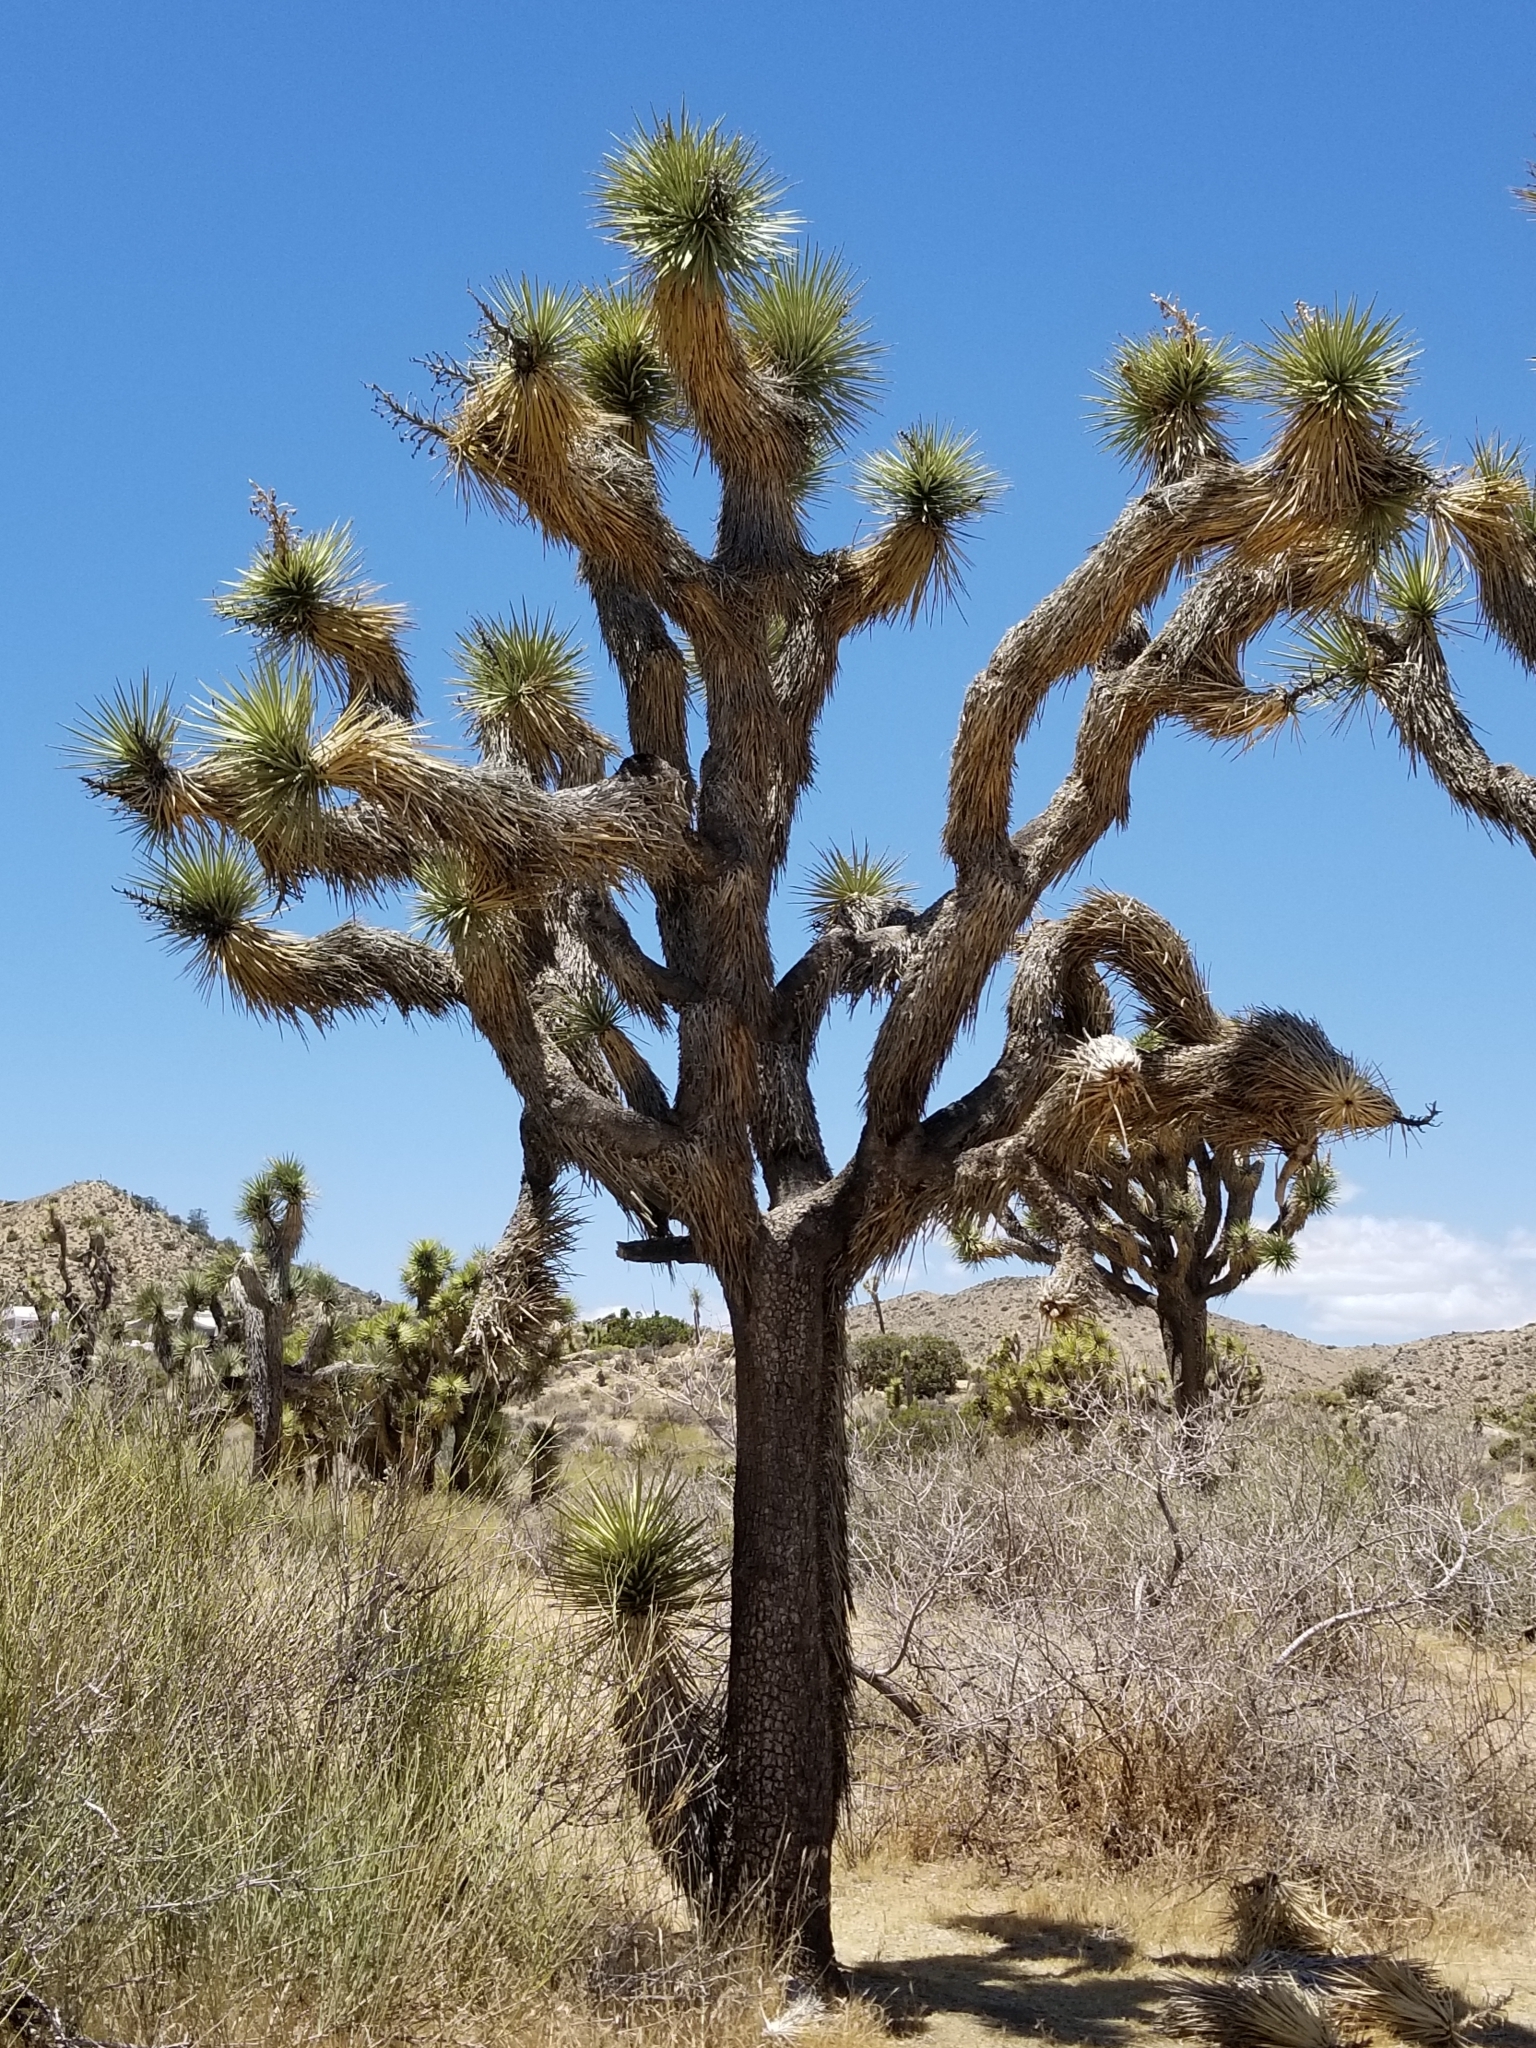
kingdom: Plantae
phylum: Tracheophyta
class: Liliopsida
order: Asparagales
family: Asparagaceae
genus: Yucca
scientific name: Yucca brevifolia
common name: Joshua tree
